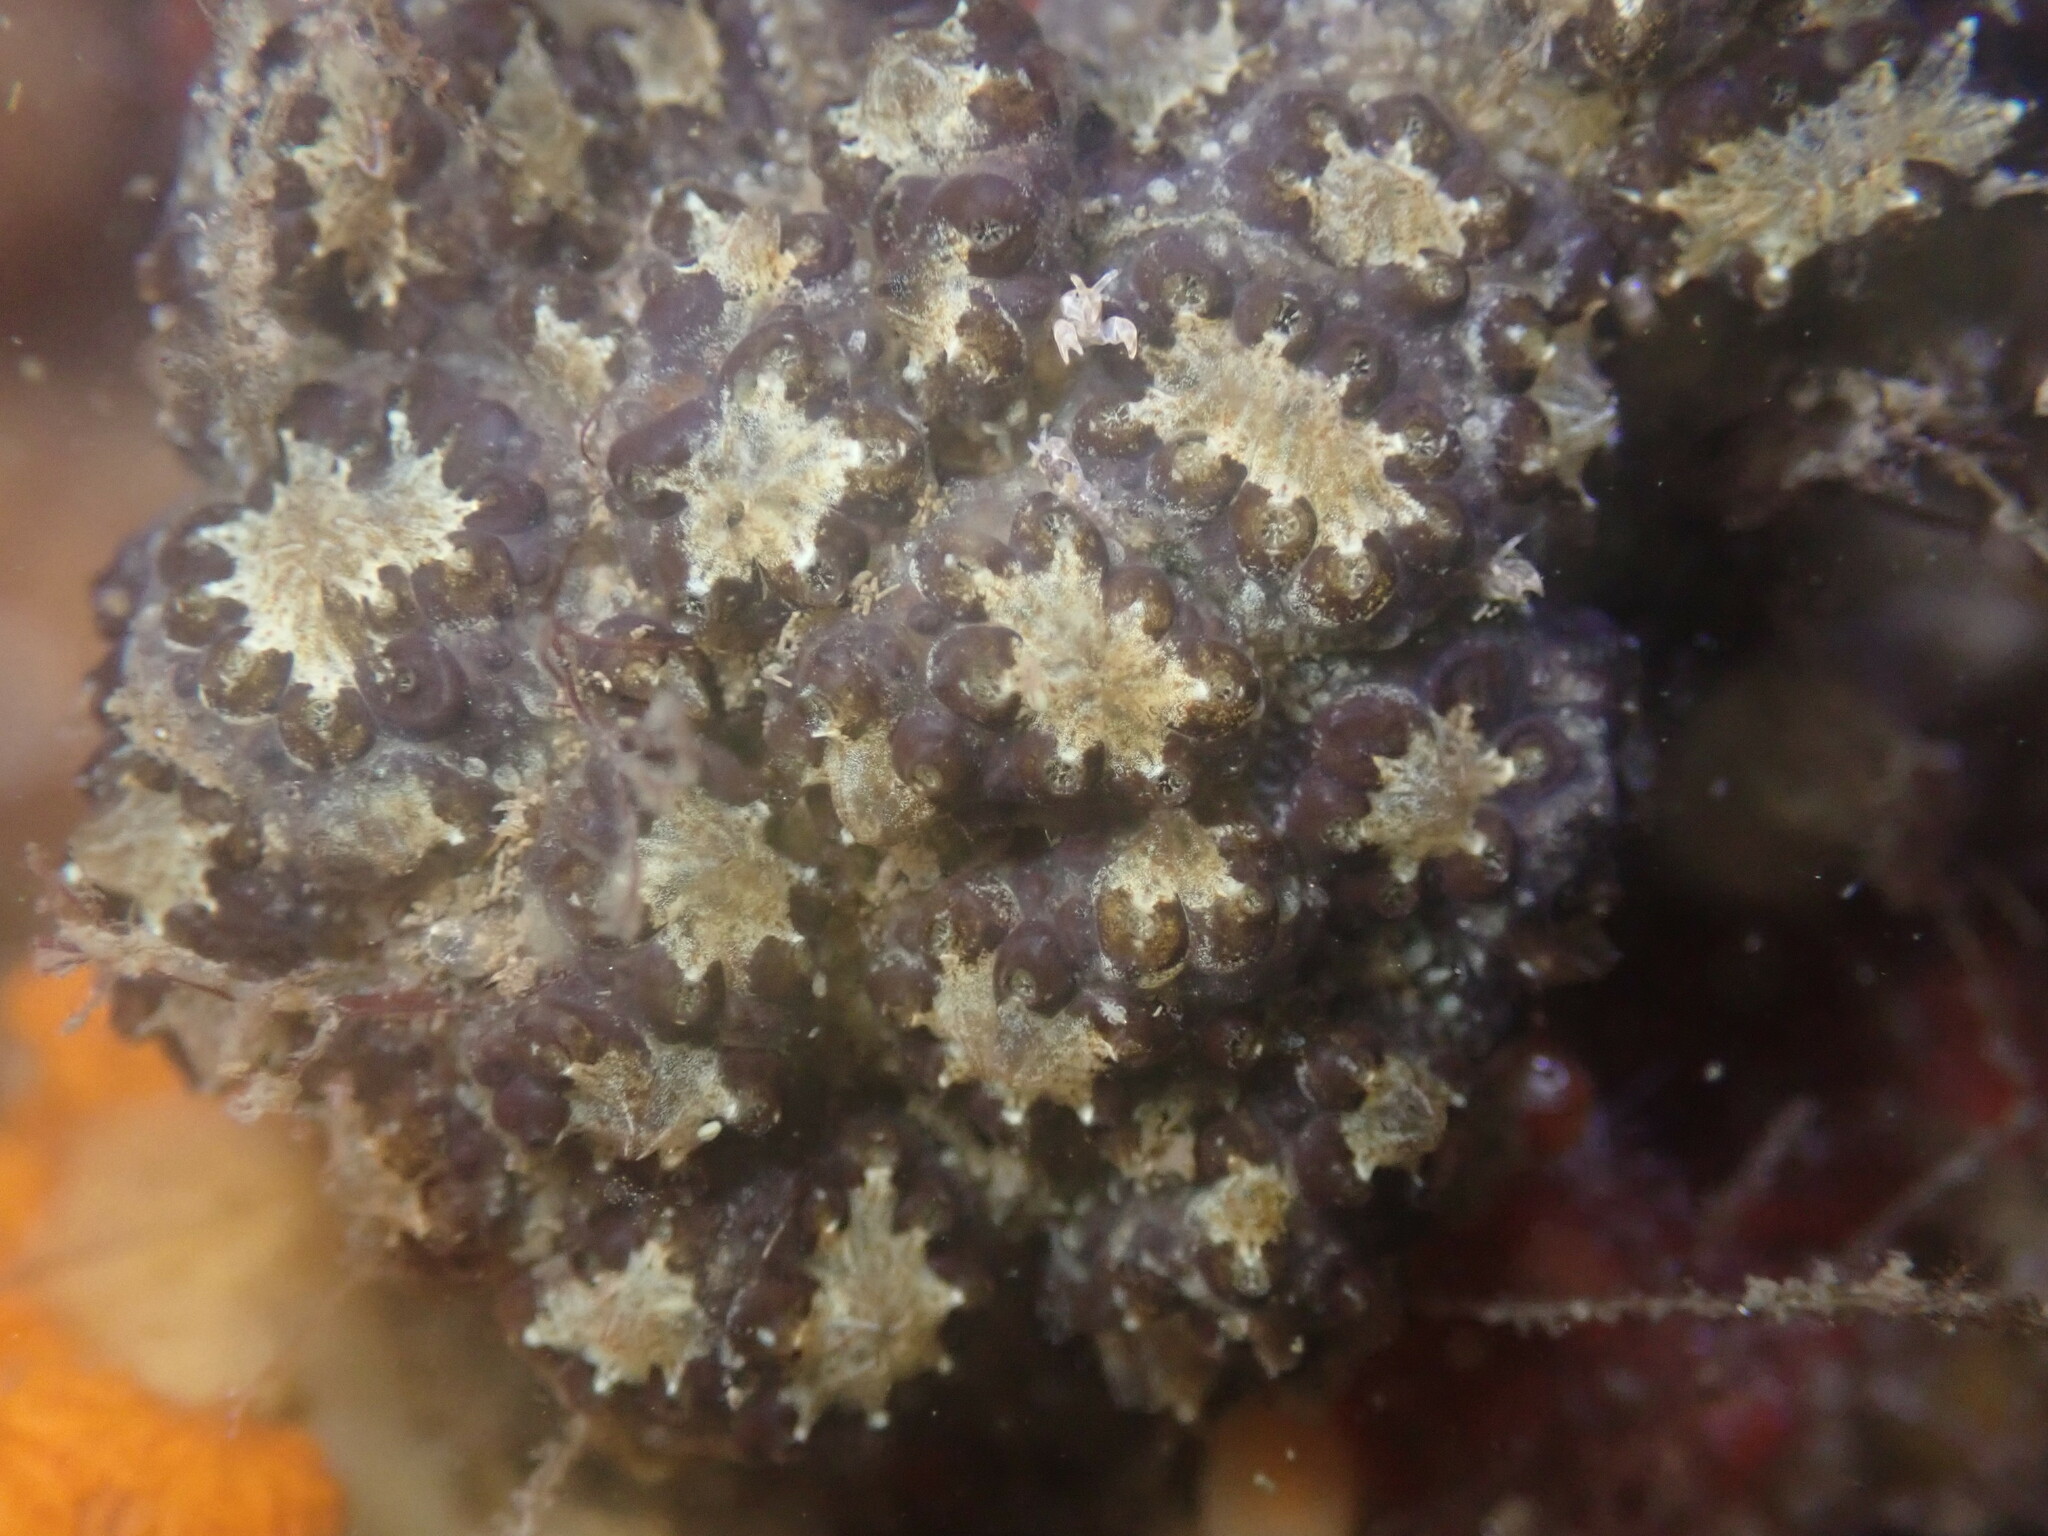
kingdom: Animalia
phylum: Chordata
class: Ascidiacea
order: Stolidobranchia
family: Styelidae
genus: Botryllus
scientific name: Botryllus schlosseri
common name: Golden star tunicate
